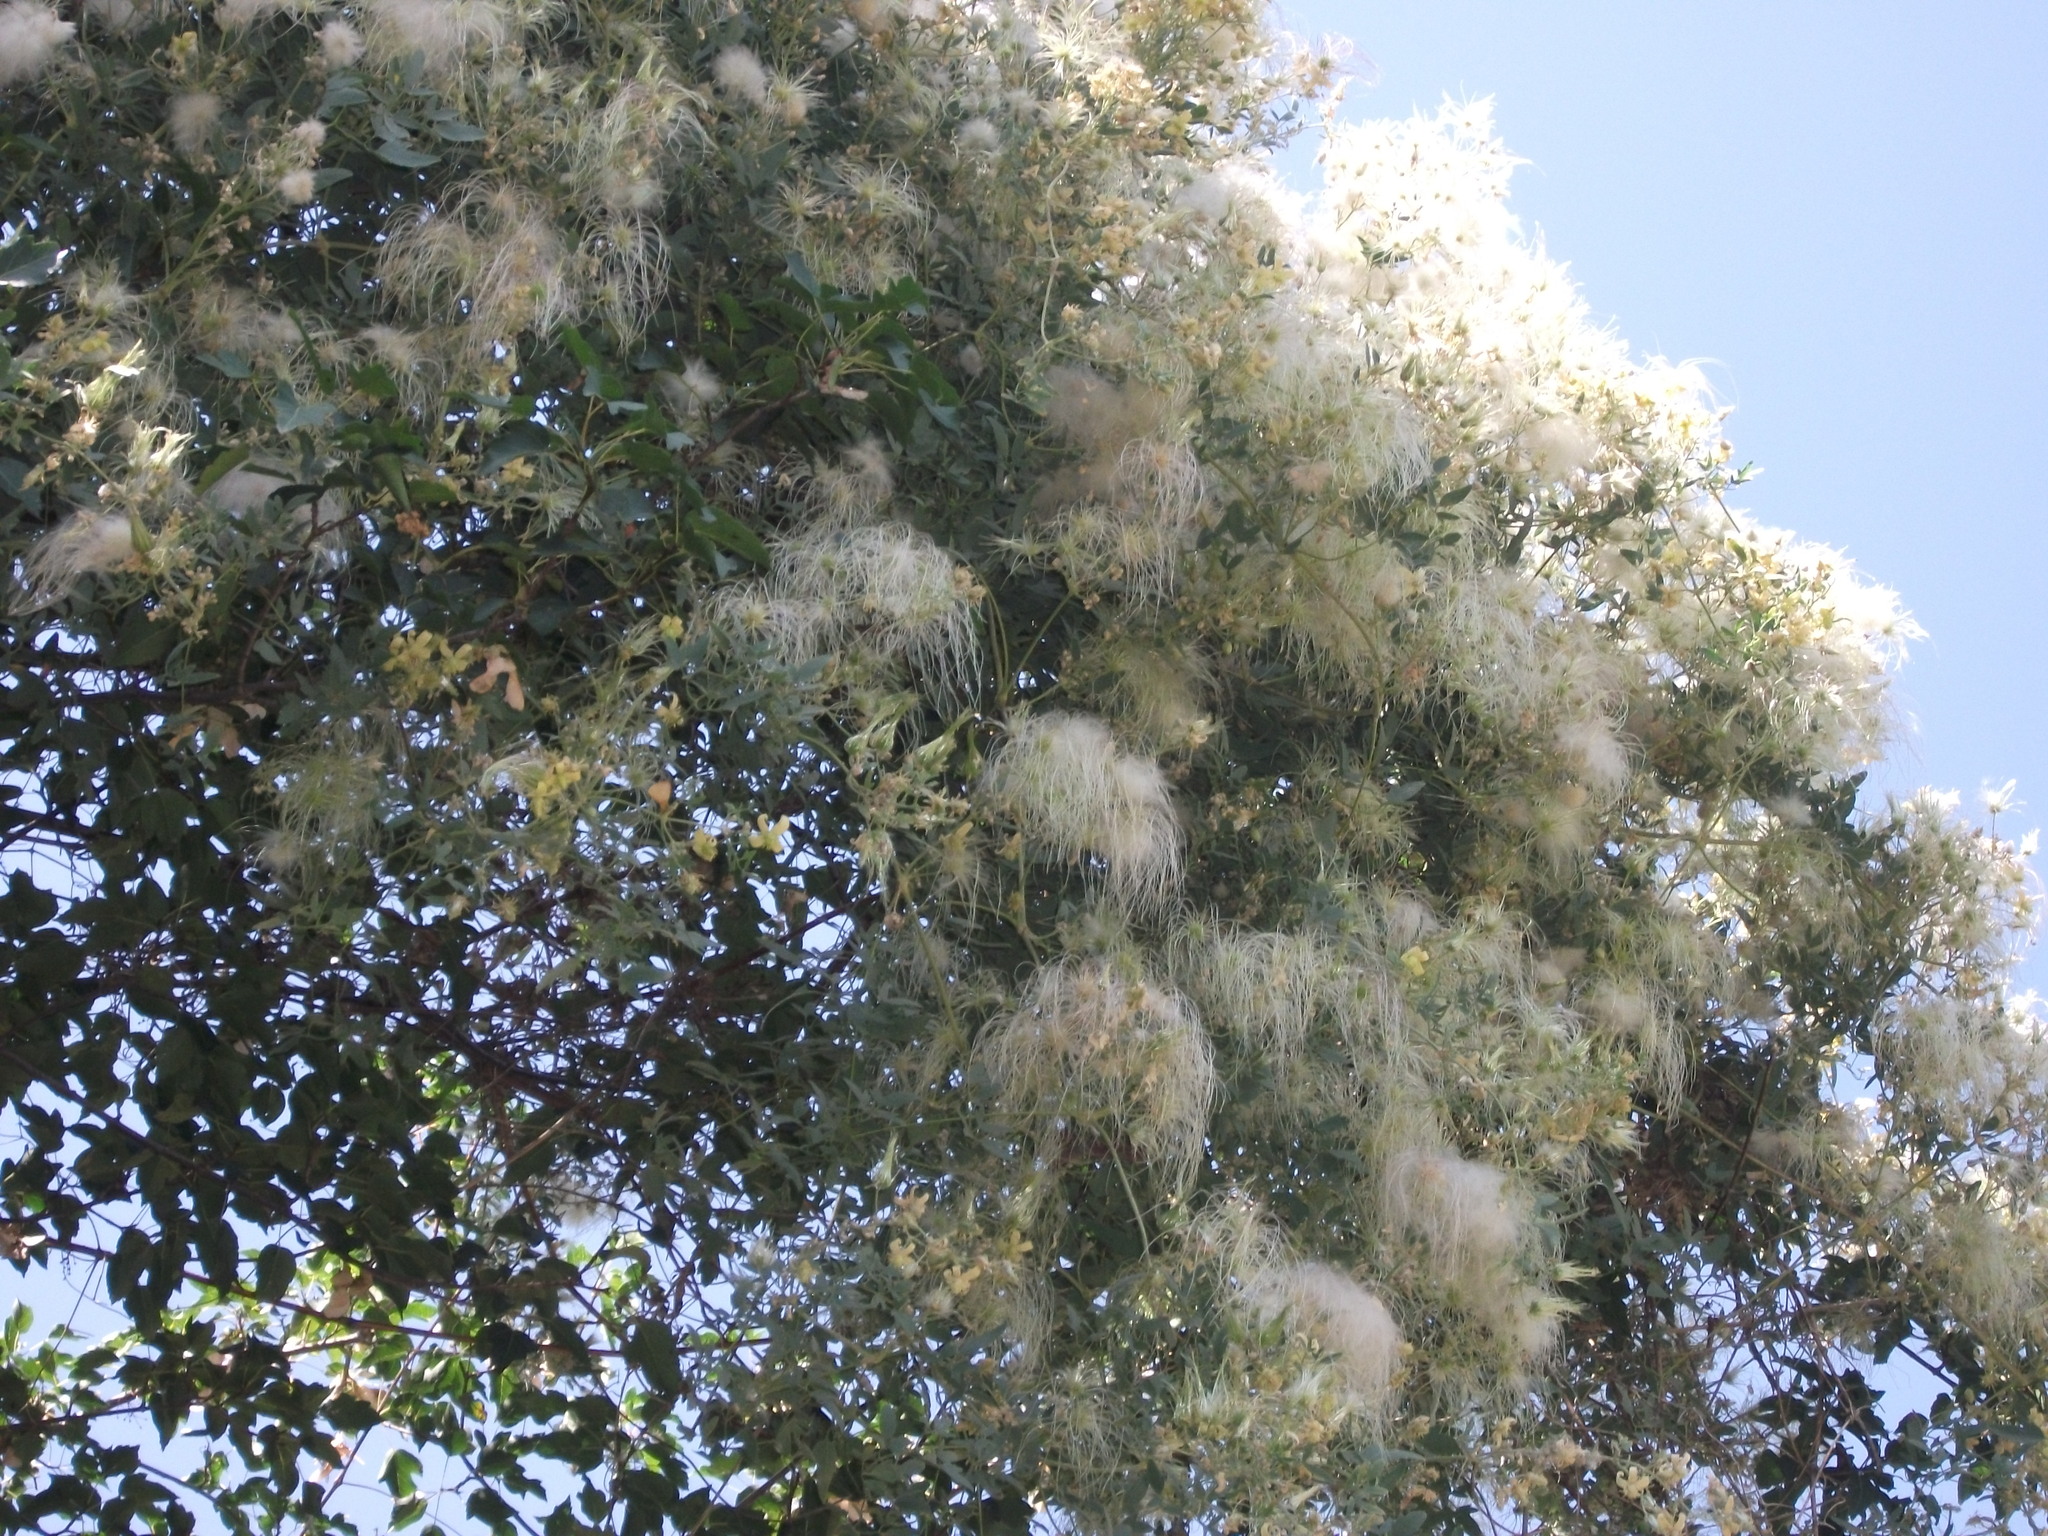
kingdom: Plantae
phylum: Tracheophyta
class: Magnoliopsida
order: Ranunculales
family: Ranunculaceae
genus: Clematis
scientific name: Clematis orientalis
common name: Oriental virgin's-bower
